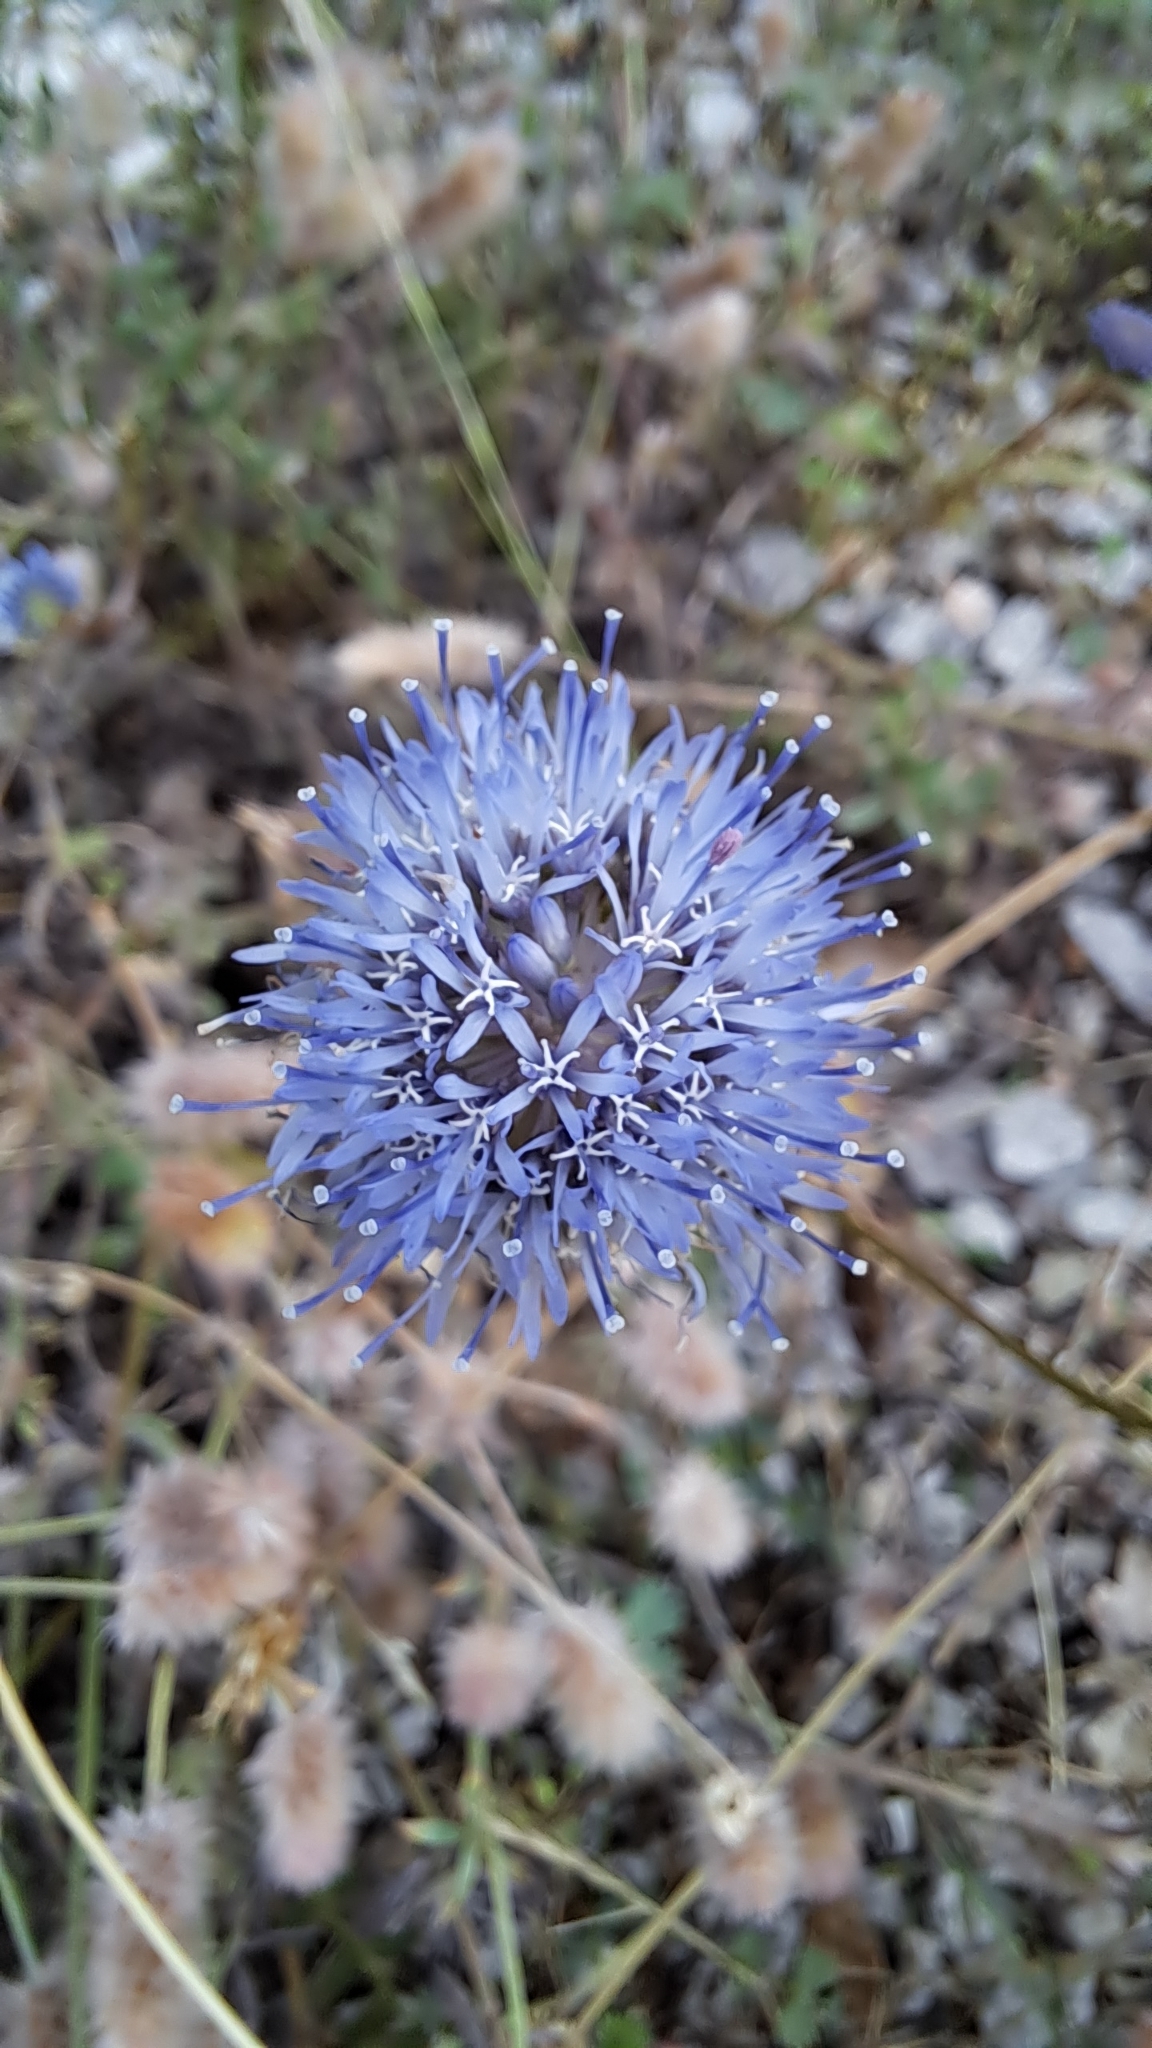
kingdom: Plantae
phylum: Tracheophyta
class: Magnoliopsida
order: Asterales
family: Campanulaceae
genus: Jasione
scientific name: Jasione montana
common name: Sheep's-bit
